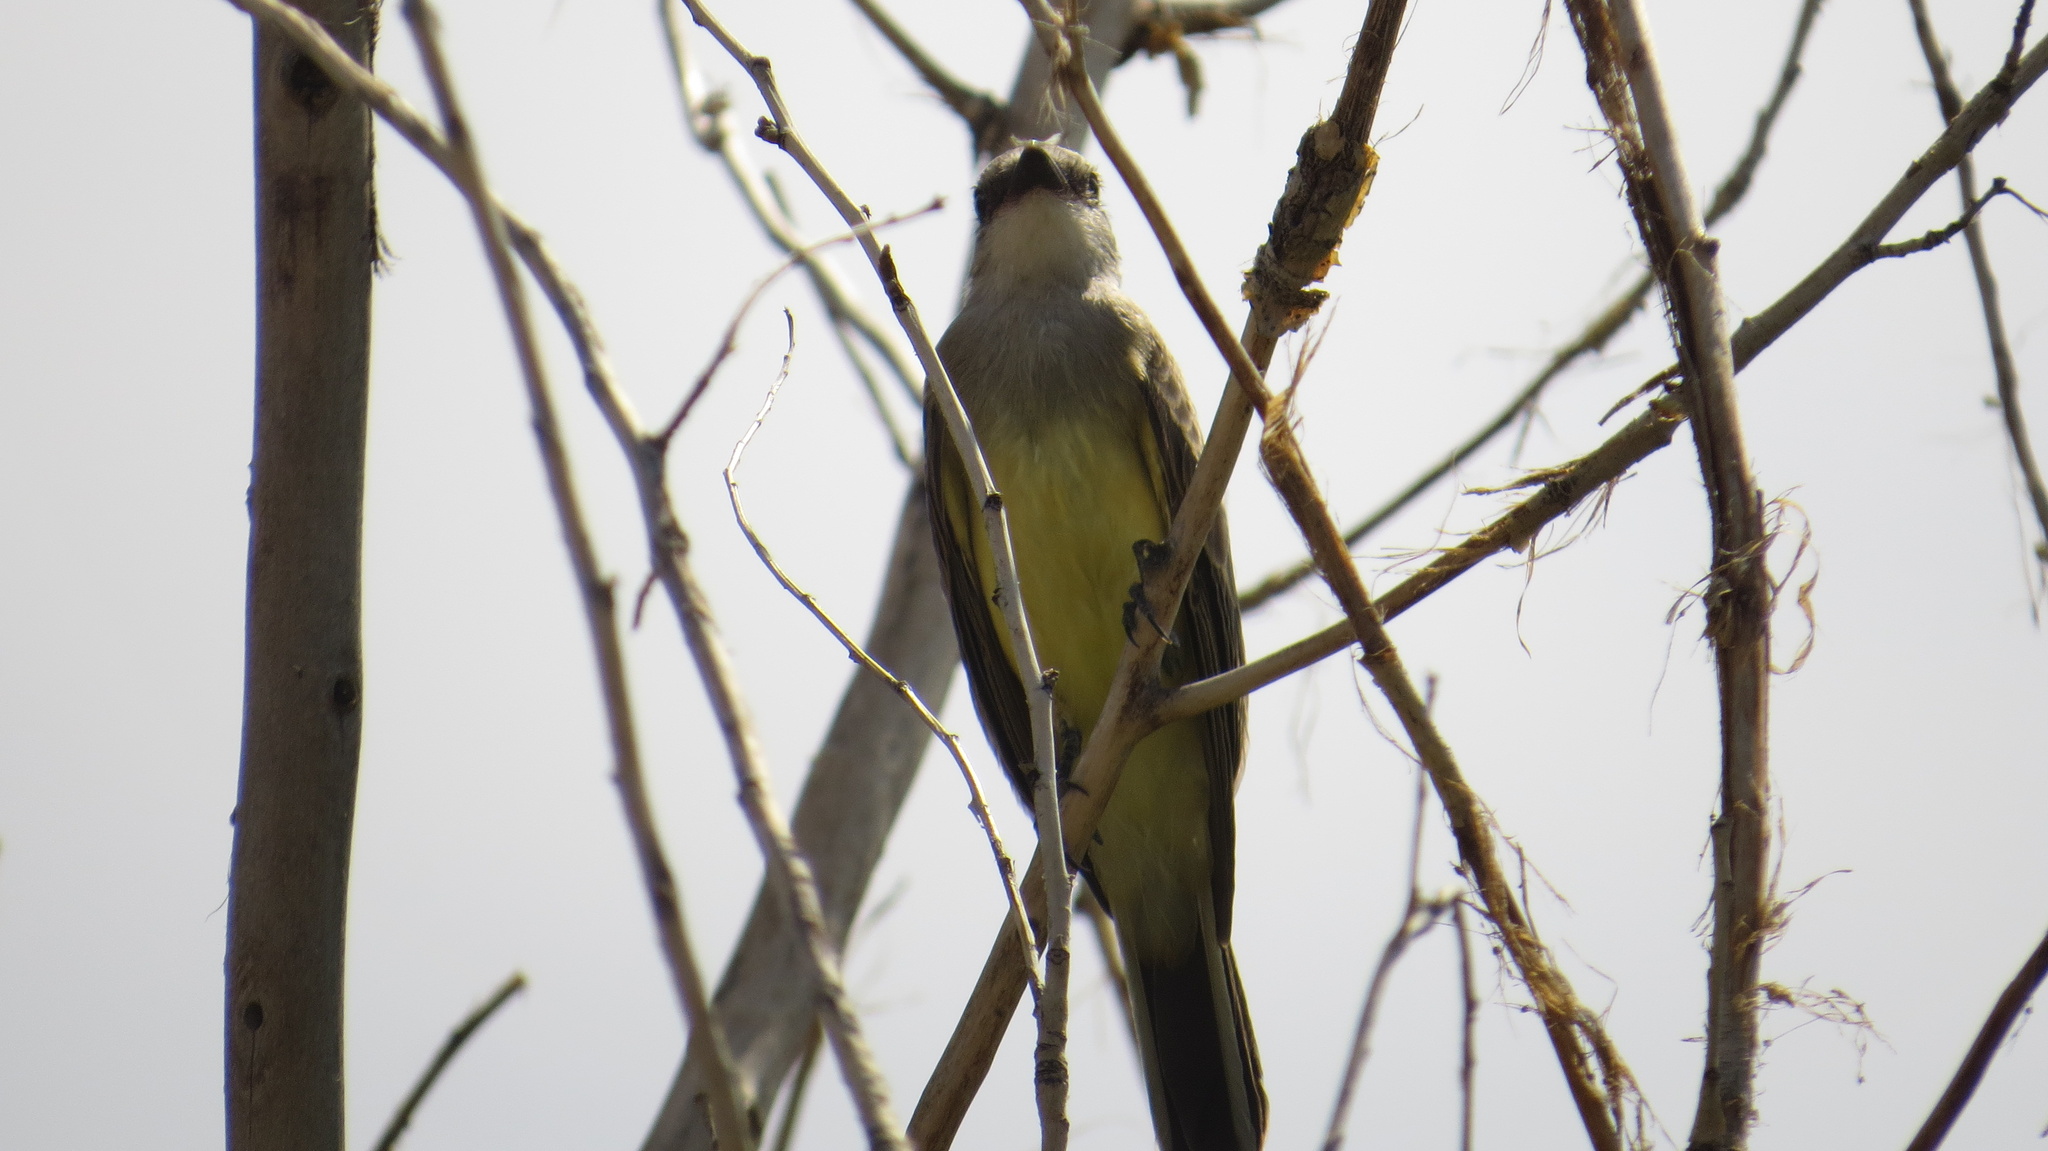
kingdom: Animalia
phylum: Chordata
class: Aves
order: Passeriformes
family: Tyrannidae
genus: Tyrannus
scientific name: Tyrannus verticalis
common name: Western kingbird
